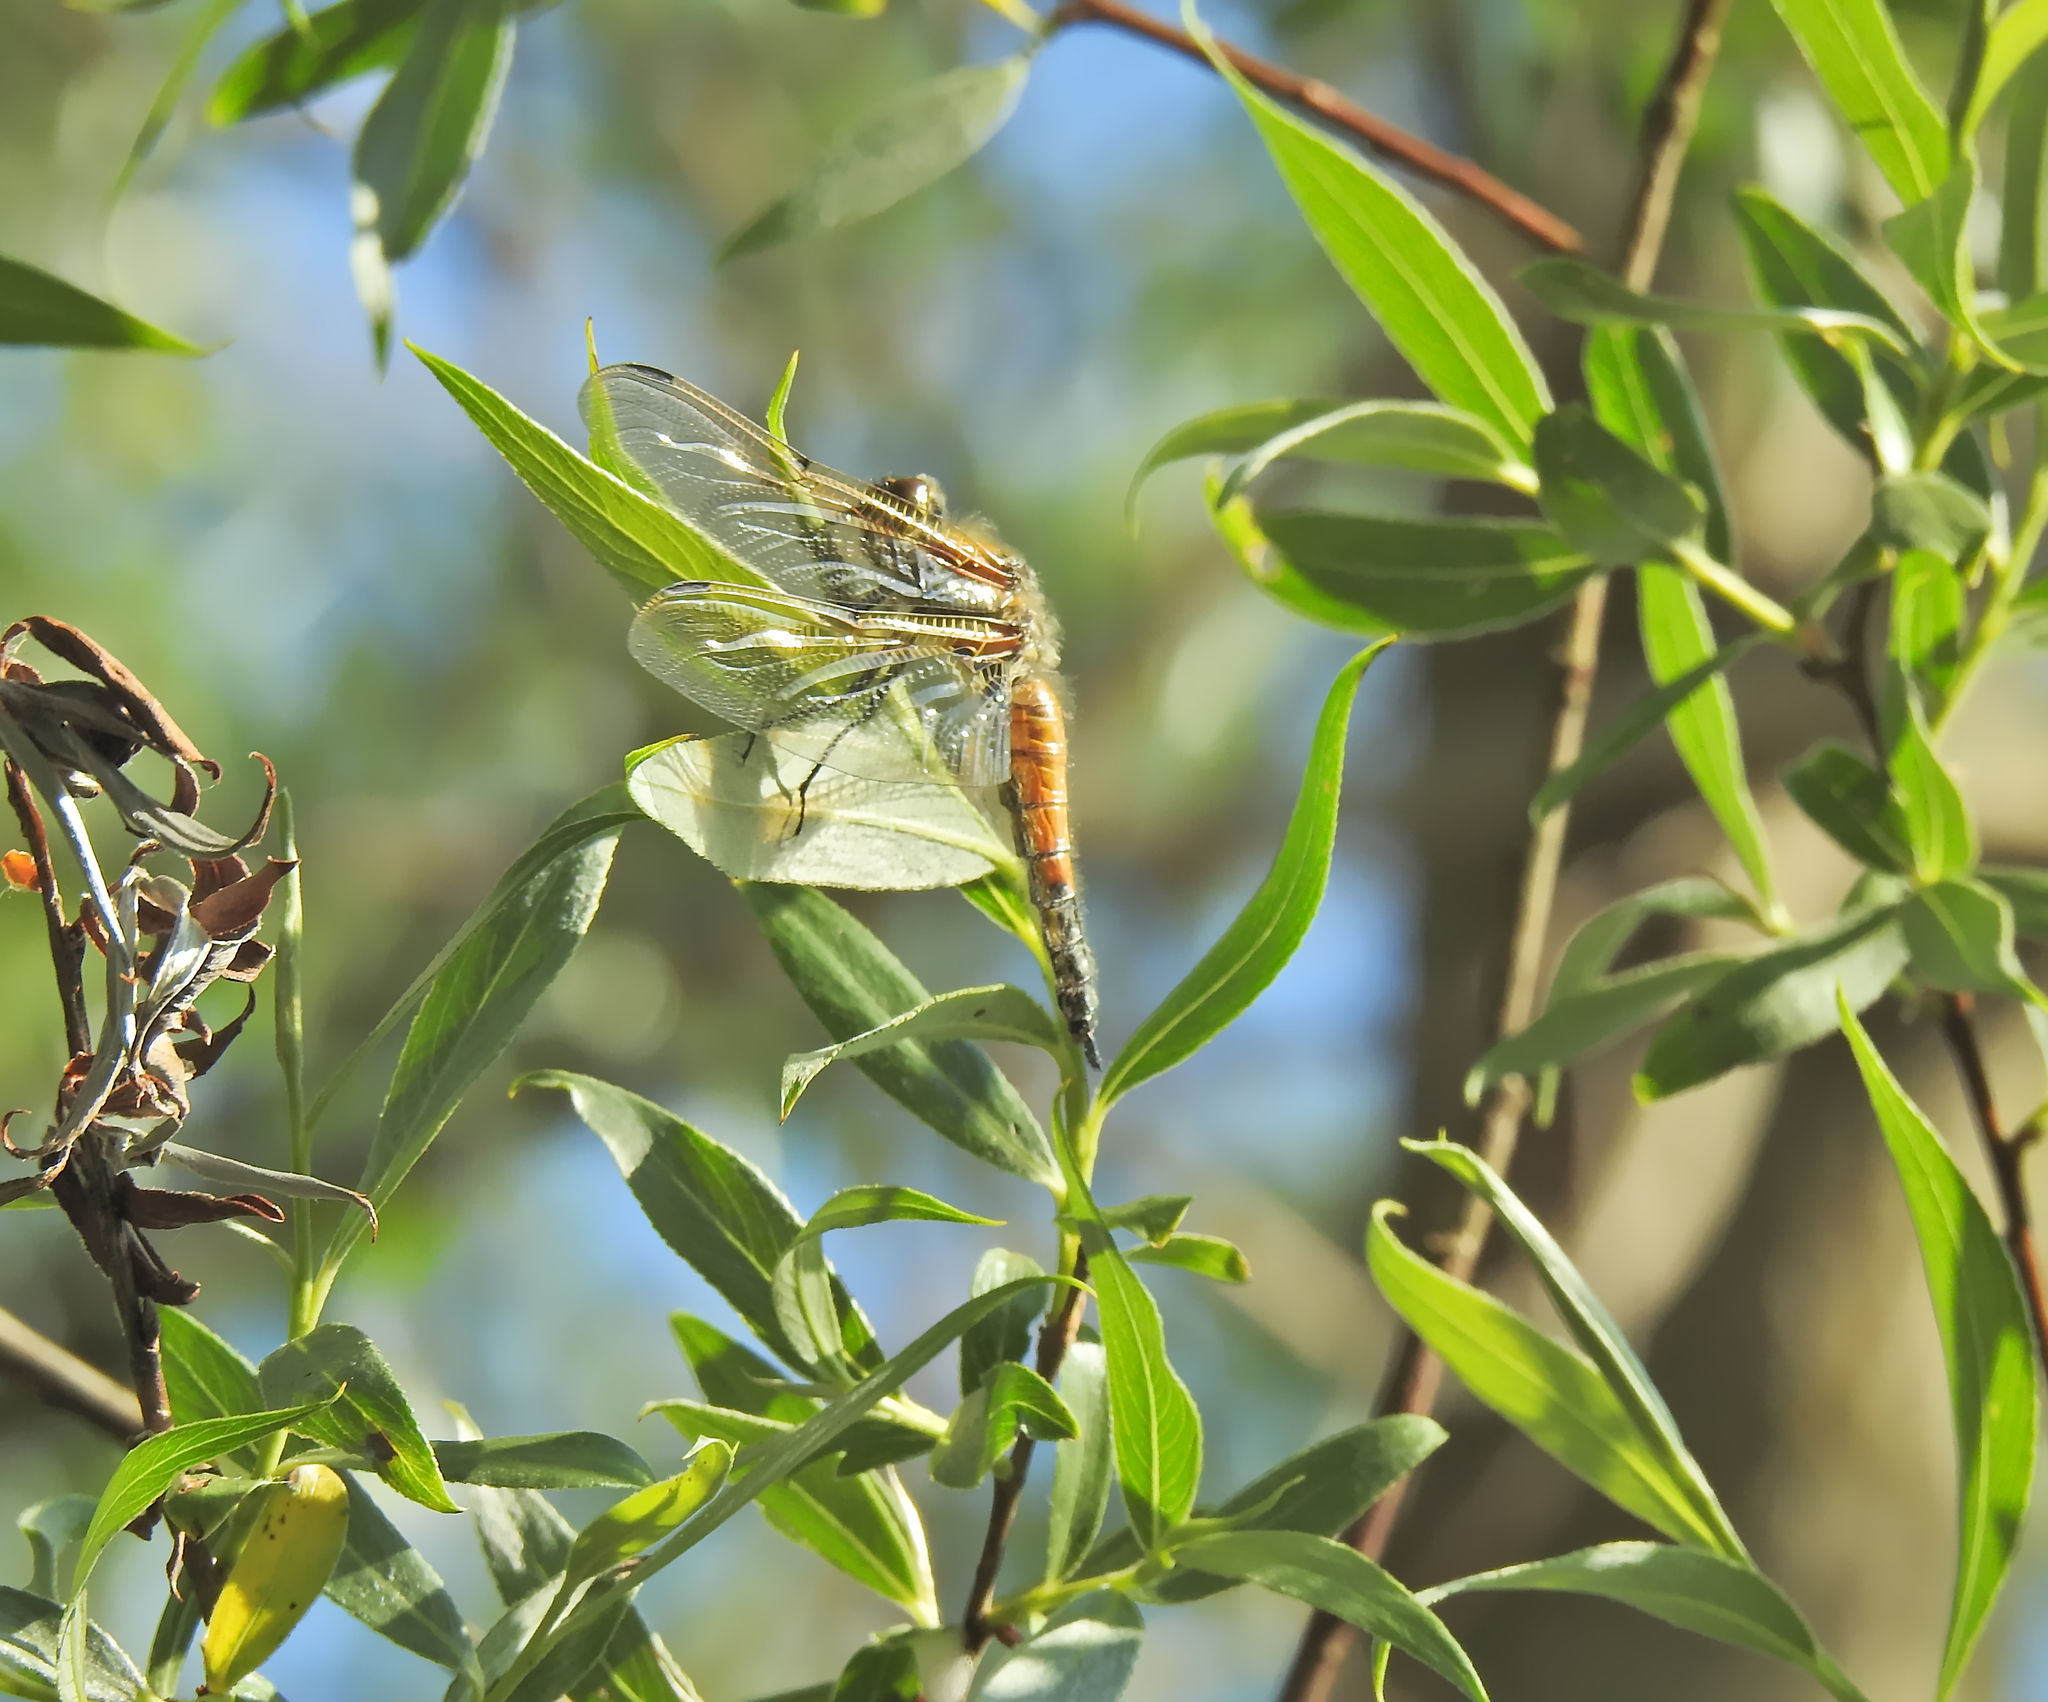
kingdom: Animalia
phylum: Arthropoda
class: Insecta
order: Odonata
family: Libellulidae
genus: Libellula
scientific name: Libellula quadrimaculata
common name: Four-spotted chaser
